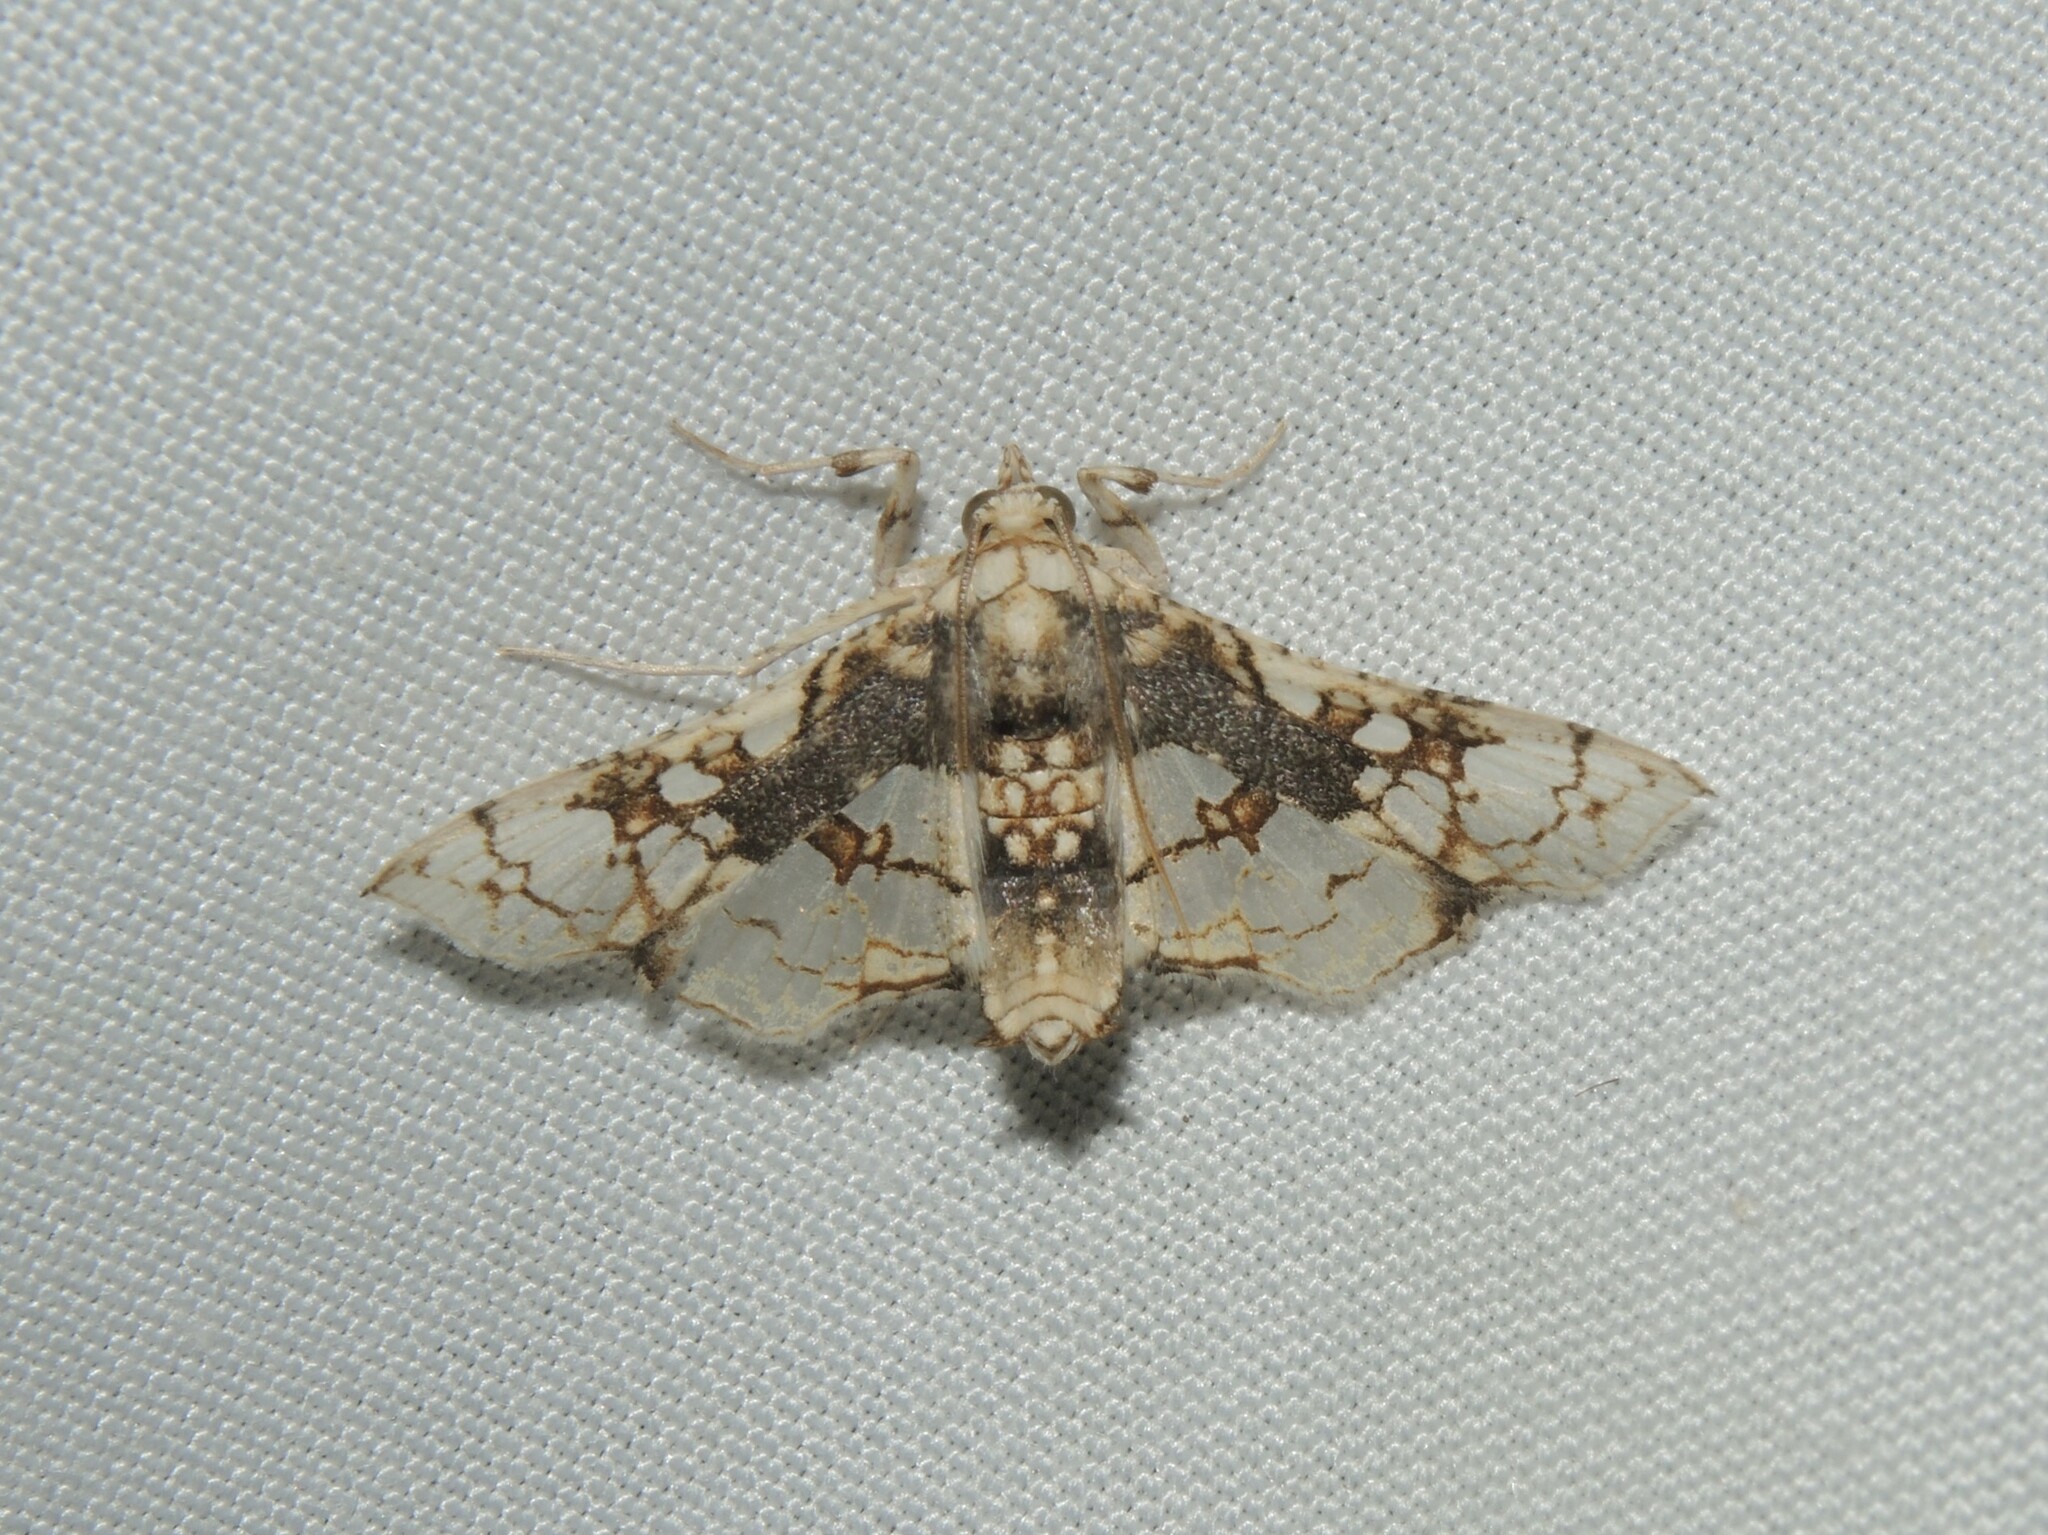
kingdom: Animalia
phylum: Arthropoda
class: Insecta
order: Lepidoptera
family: Crambidae
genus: Omphisa
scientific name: Omphisa anastomosalis
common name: Sweetpotato vineborer
